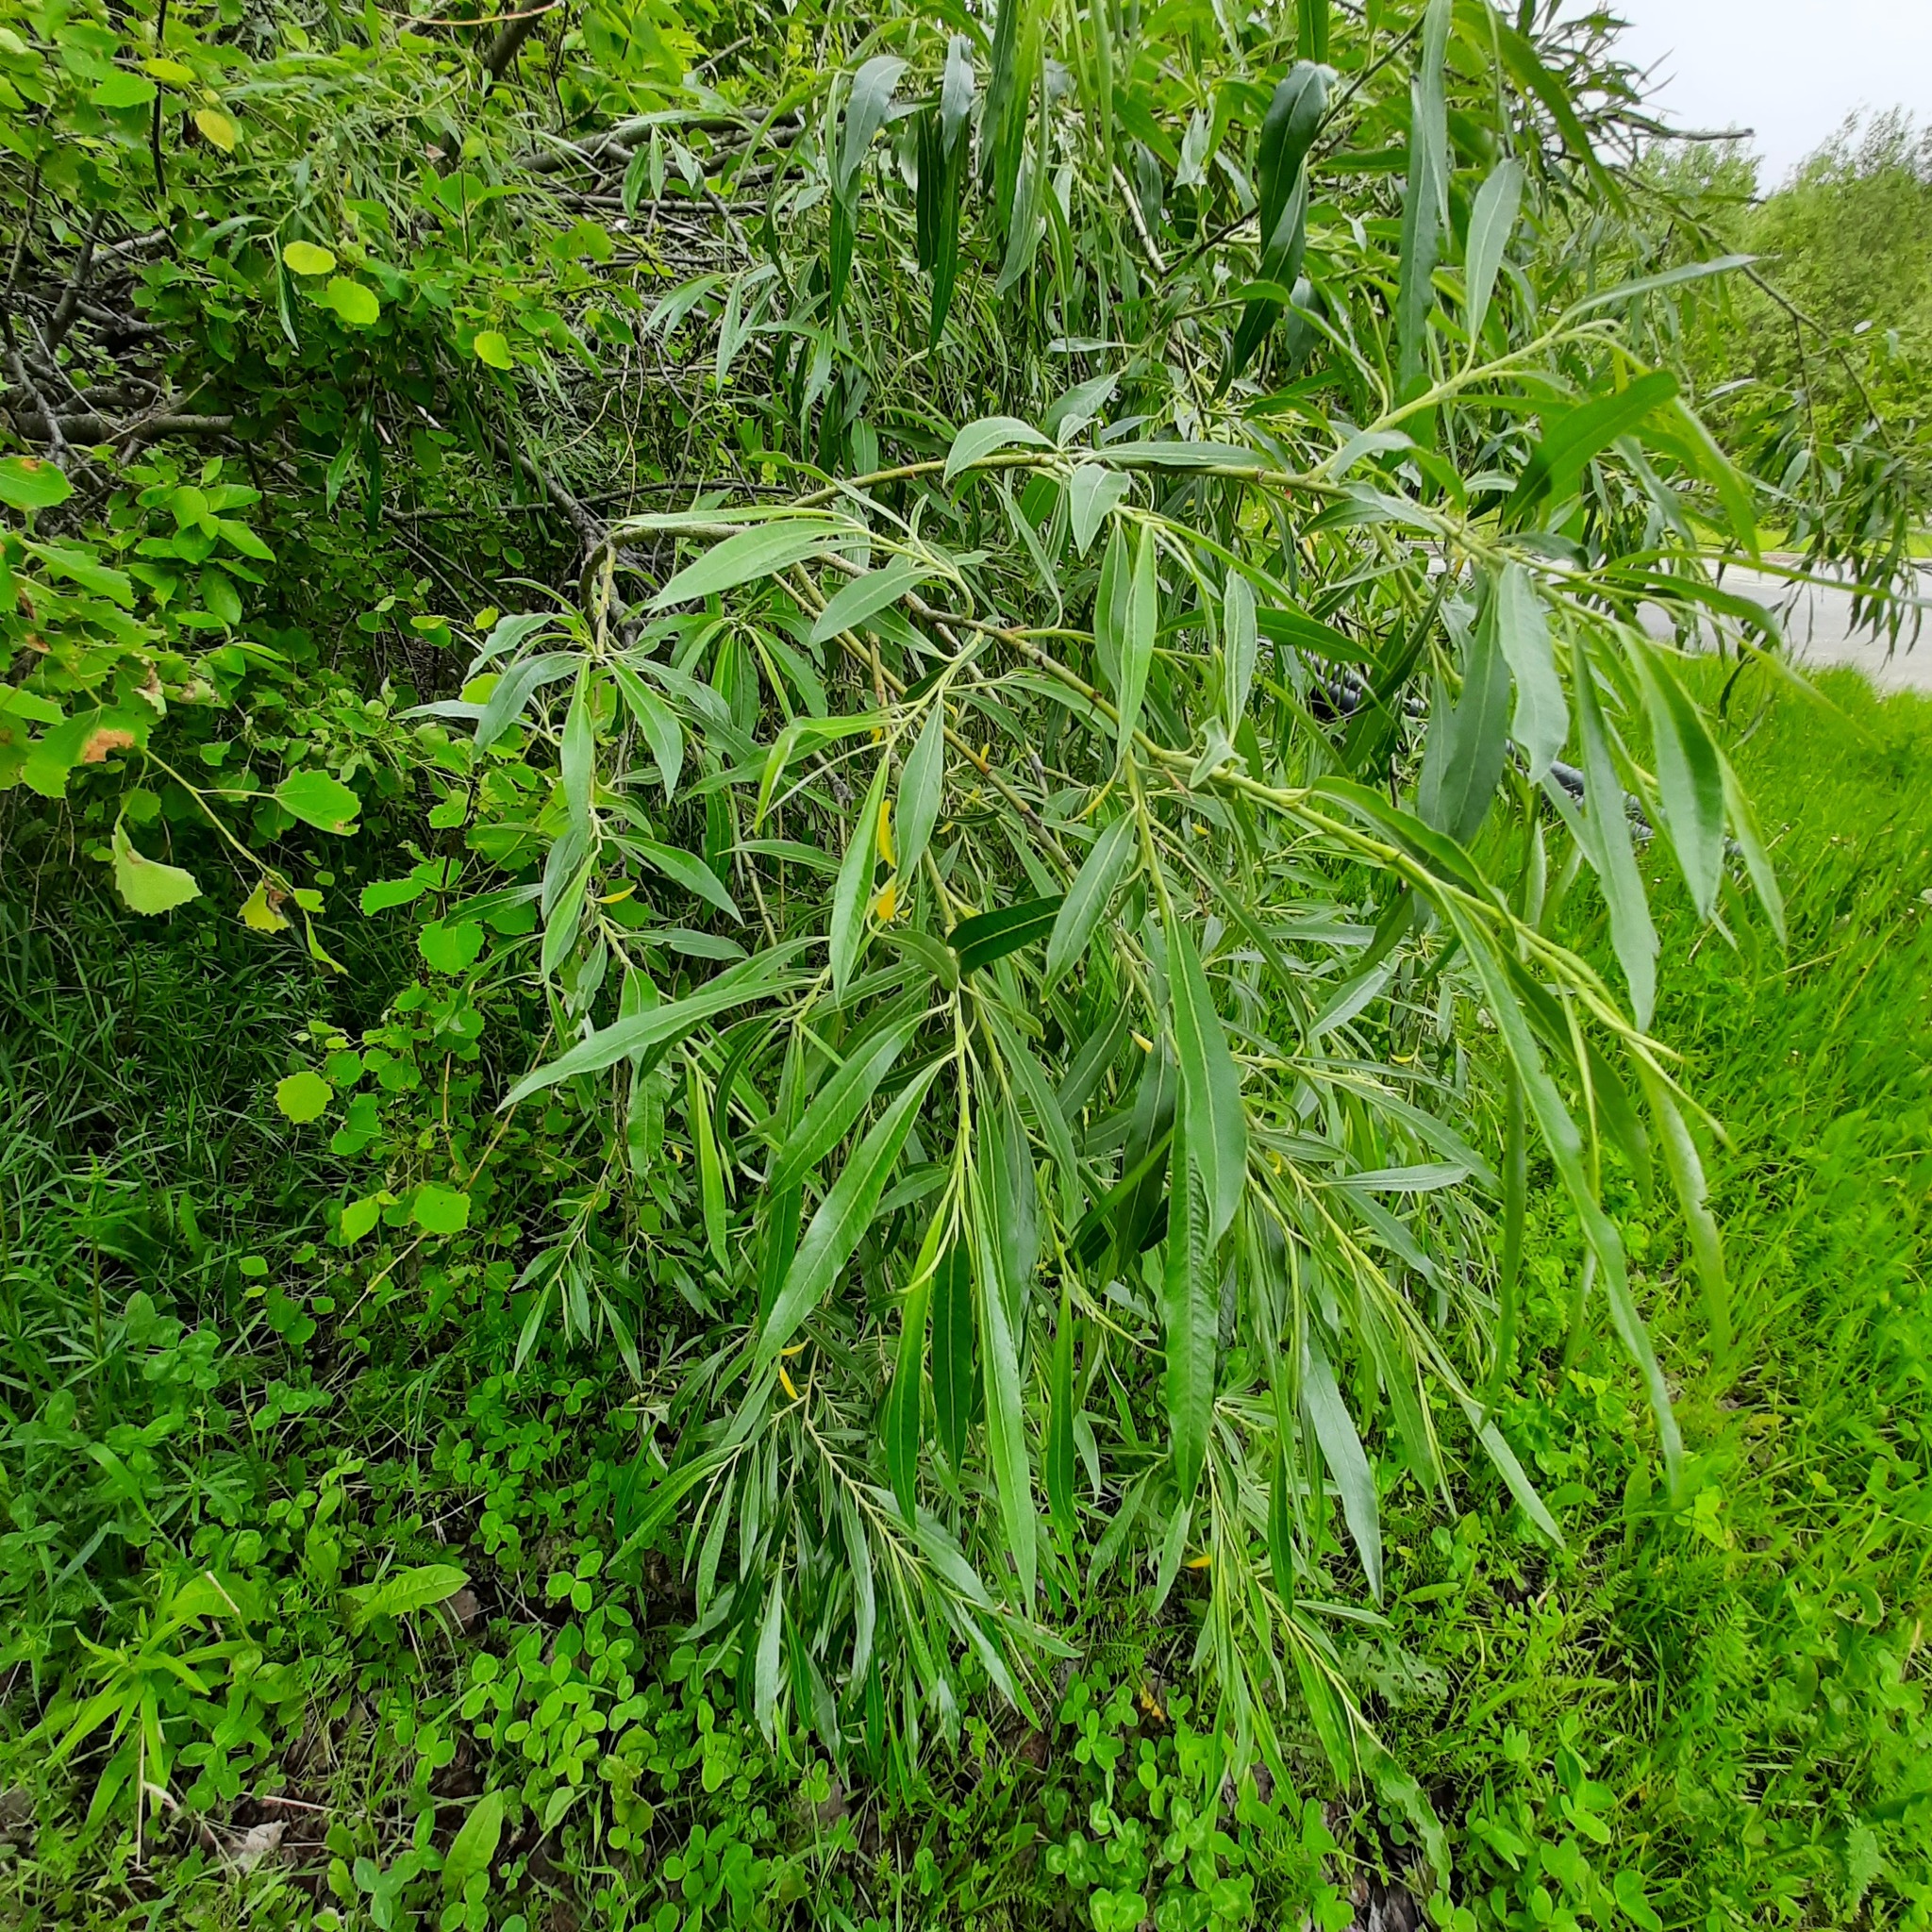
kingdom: Plantae
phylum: Tracheophyta
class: Magnoliopsida
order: Malpighiales
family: Salicaceae
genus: Salix
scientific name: Salix gmelinii
